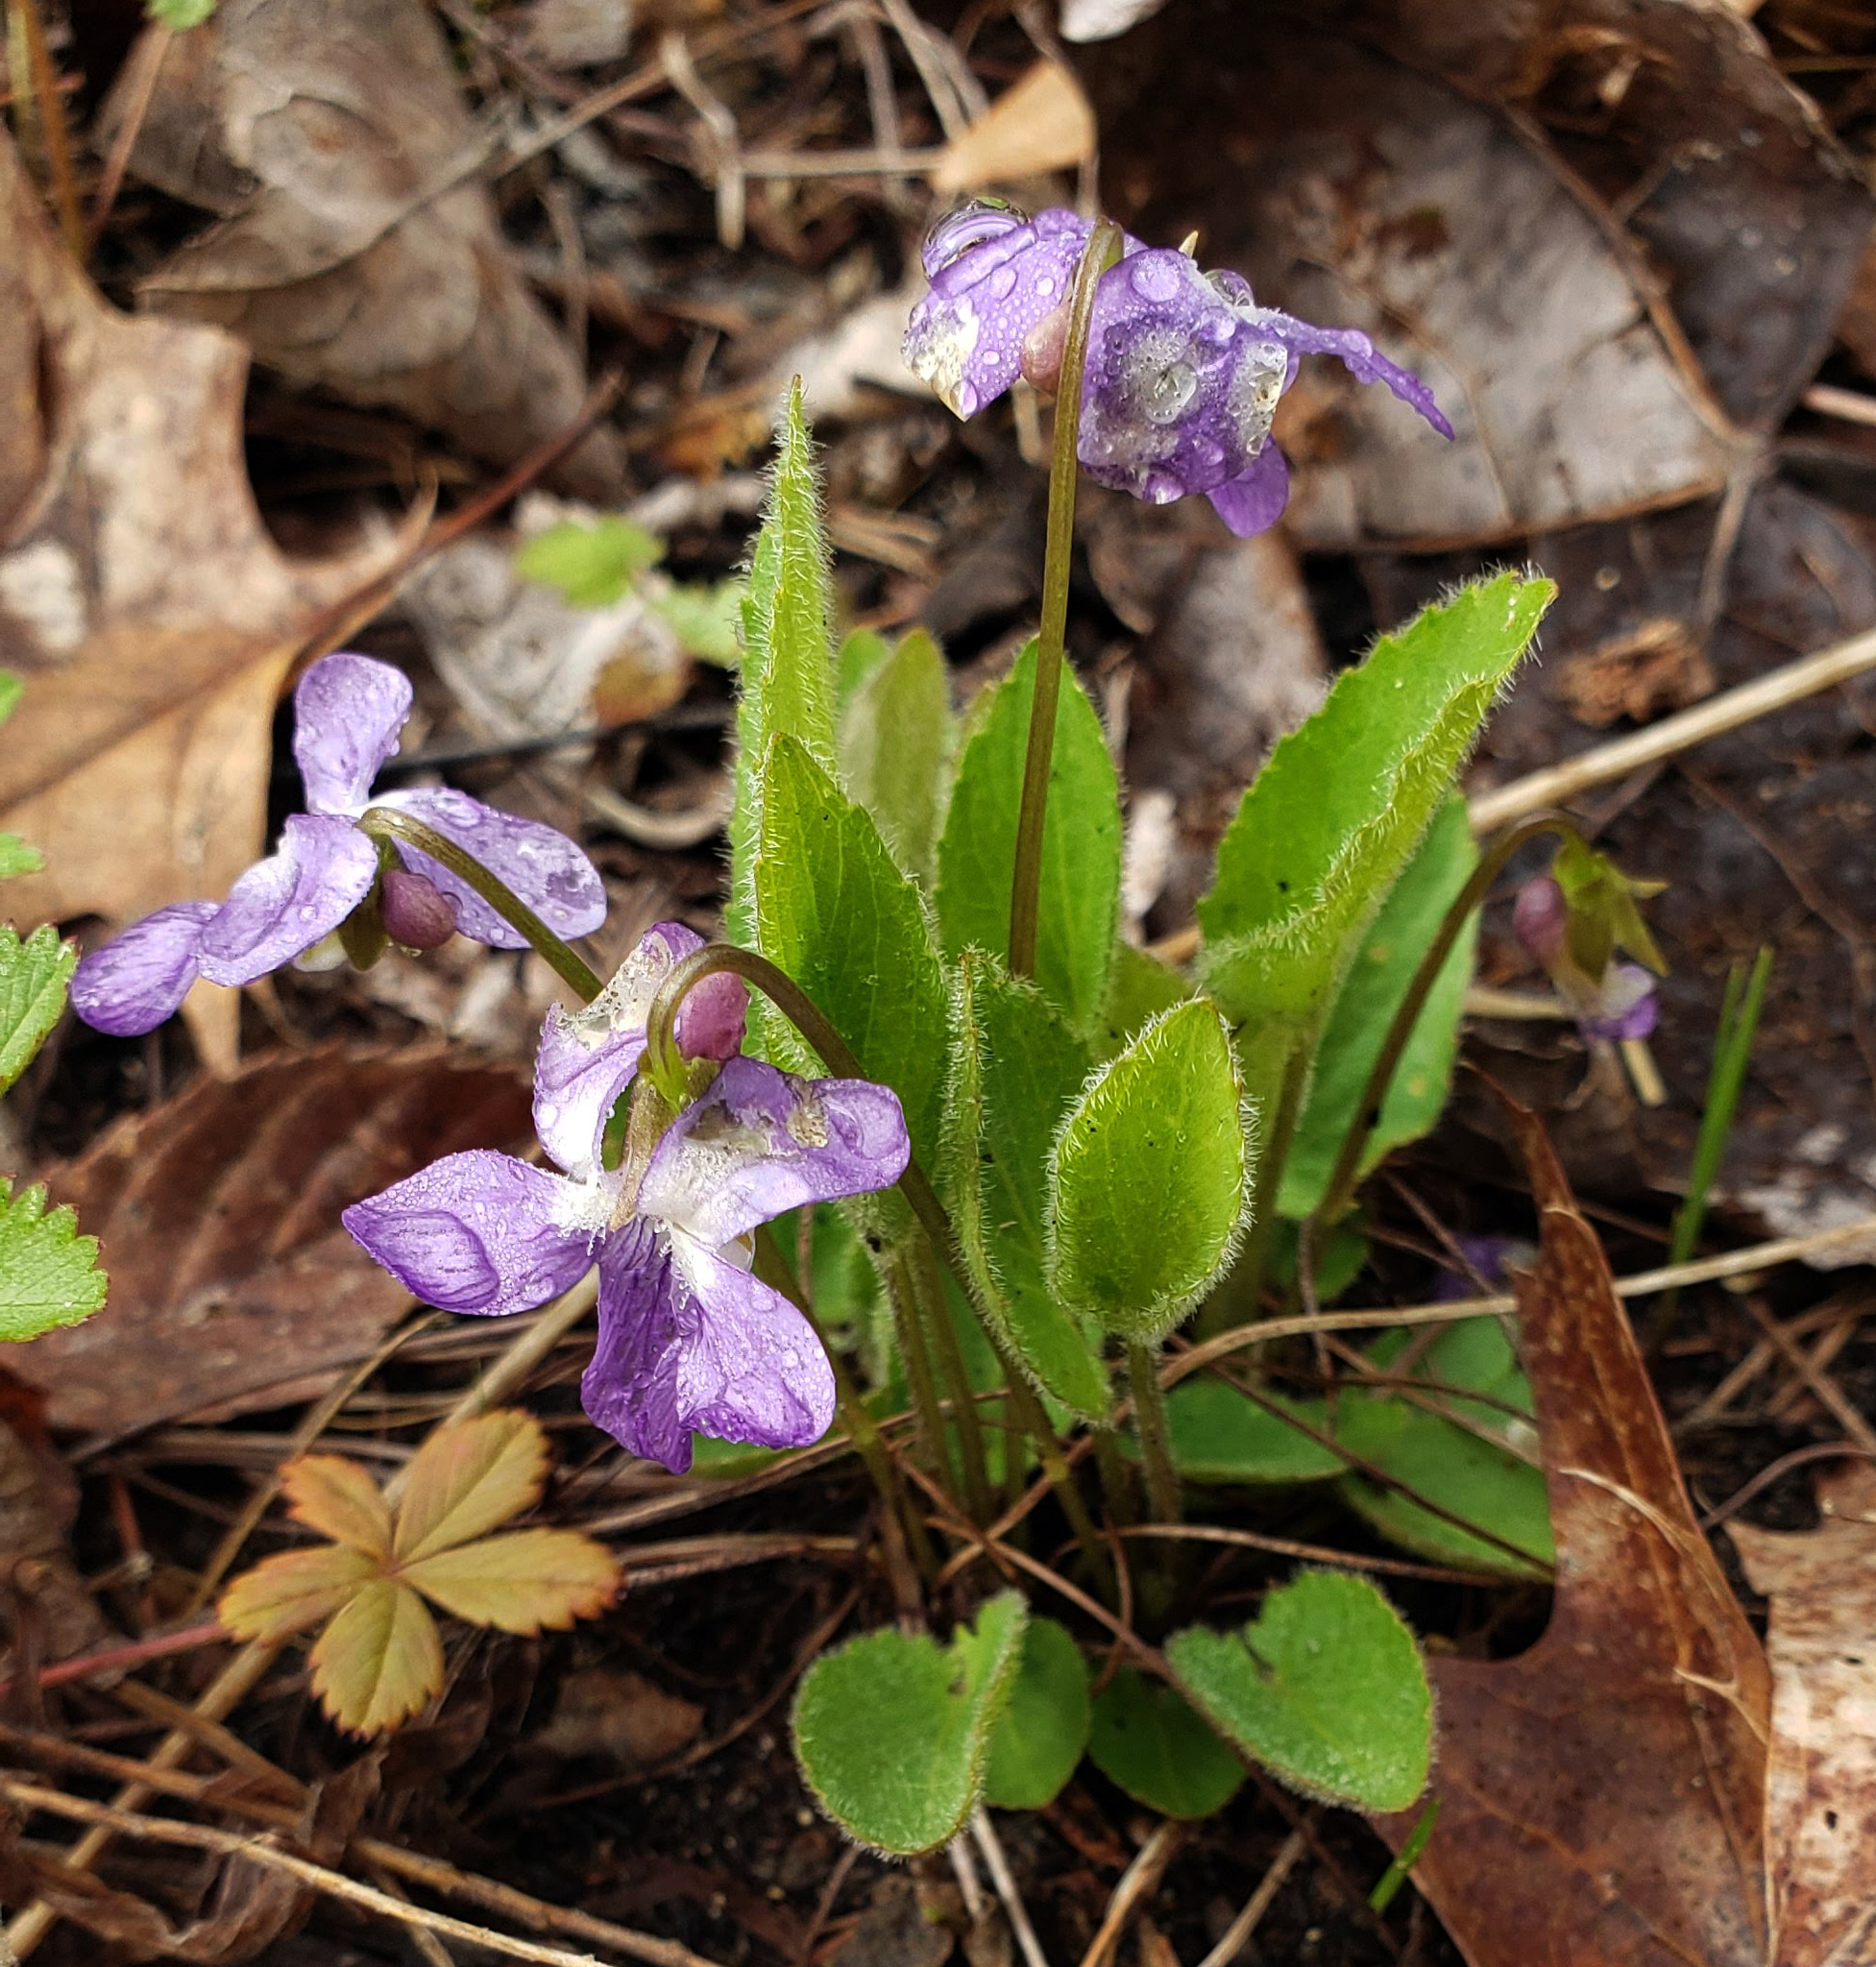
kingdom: Plantae
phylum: Tracheophyta
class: Magnoliopsida
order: Malpighiales
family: Violaceae
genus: Viola
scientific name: Viola sagittata
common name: Arrowhead violet
